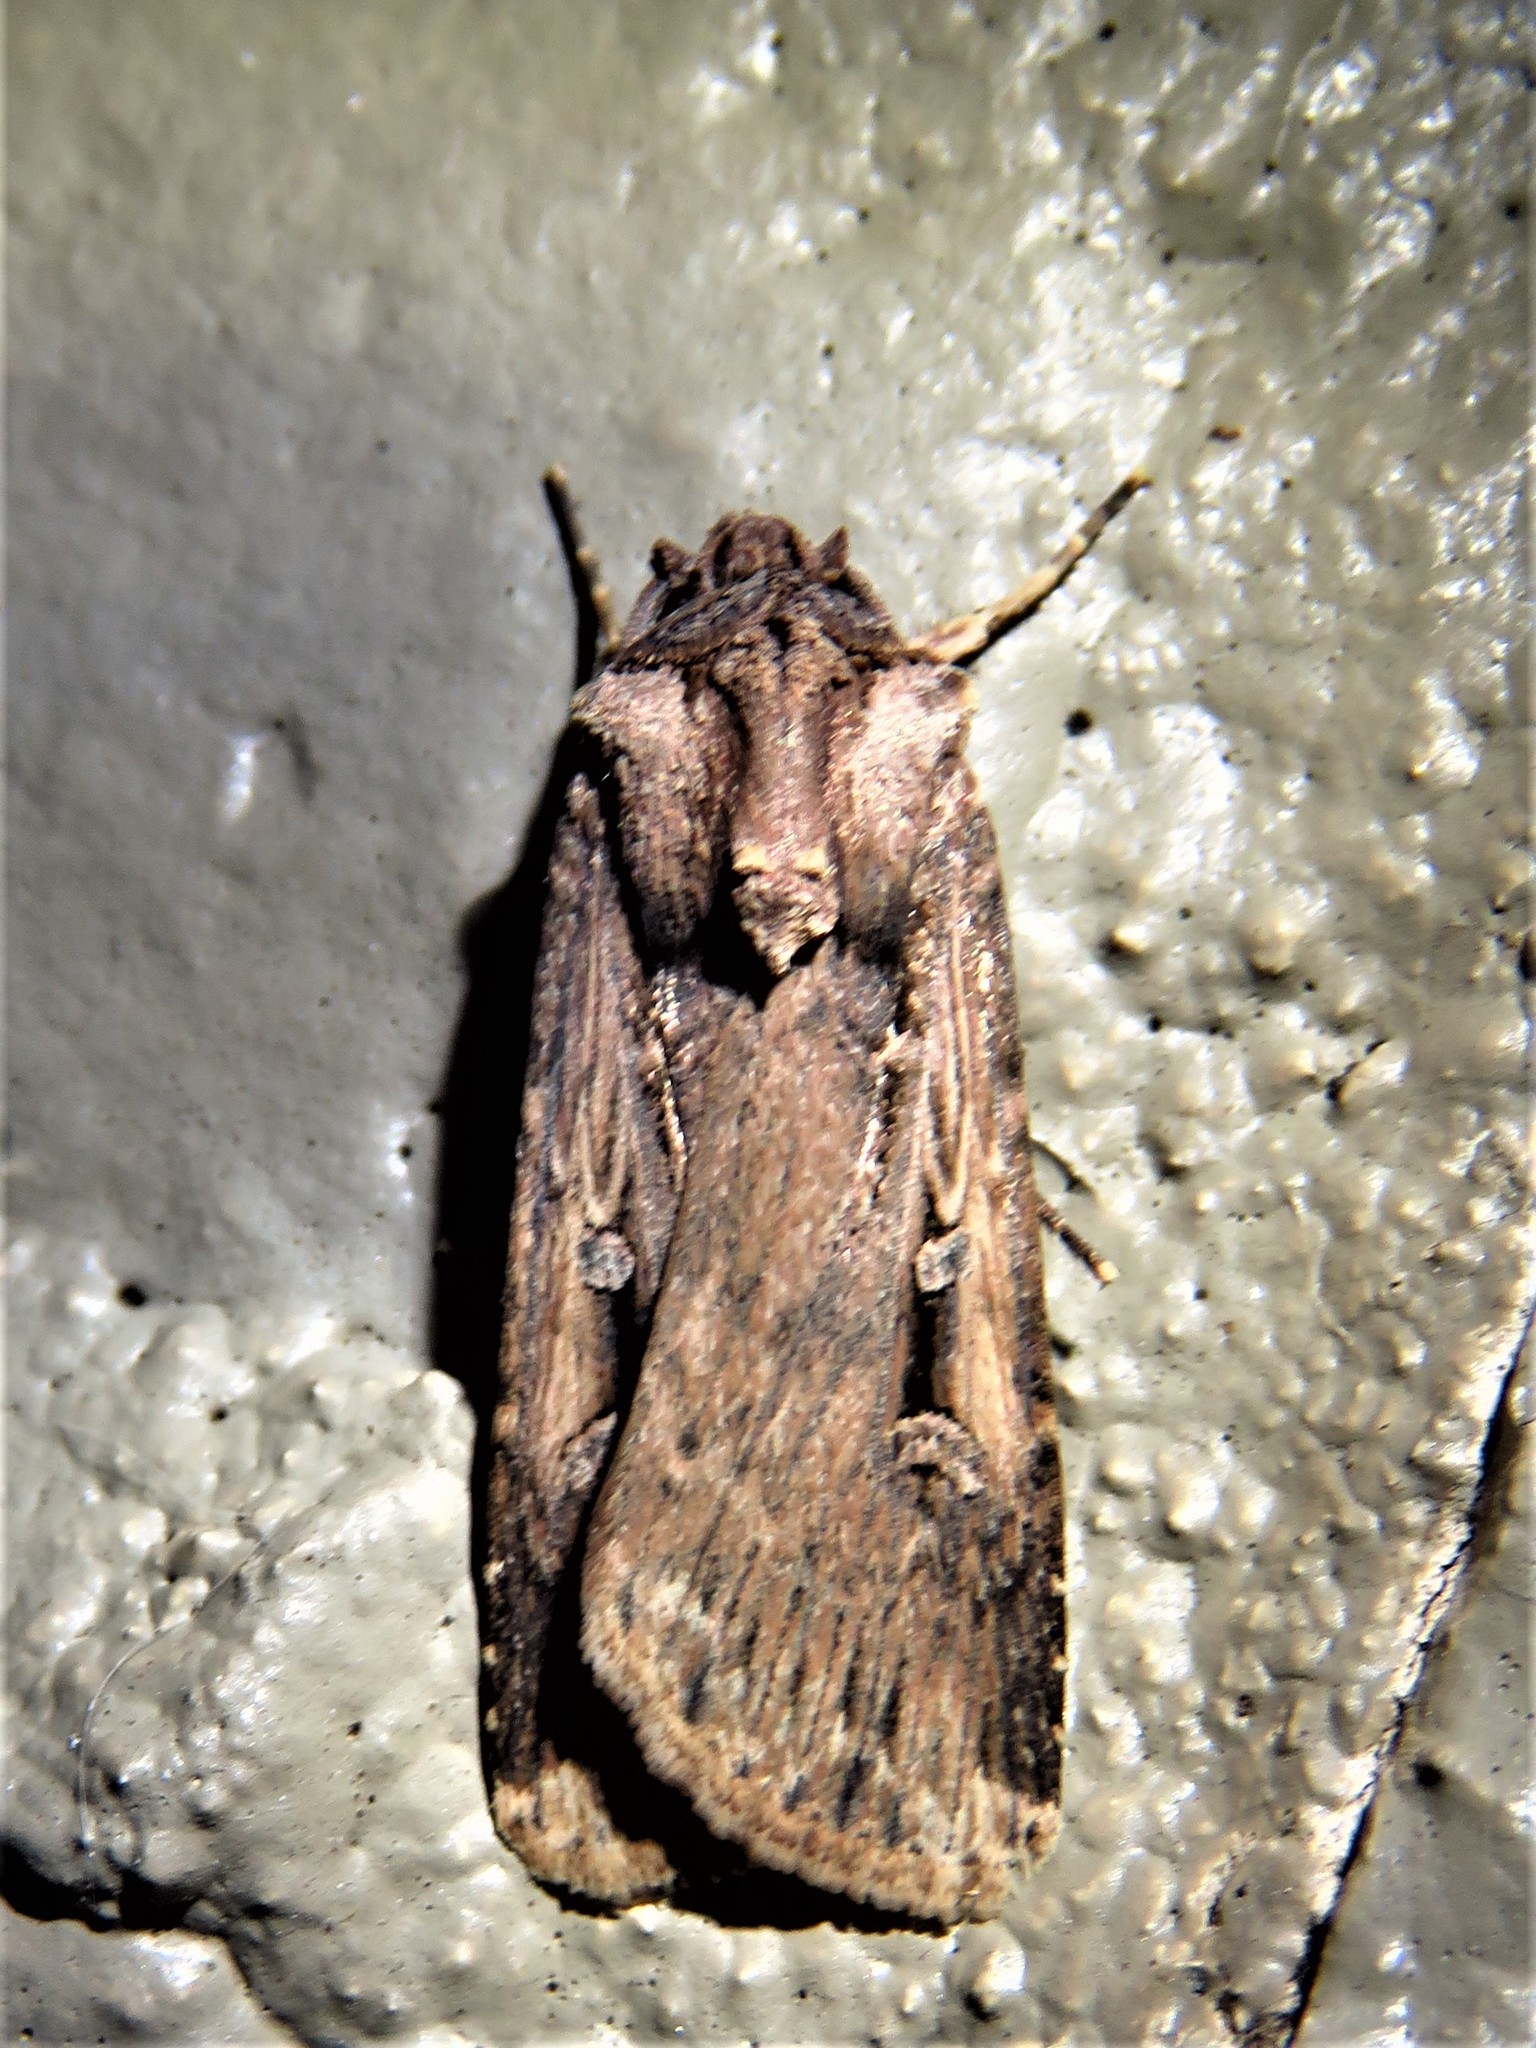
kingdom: Animalia
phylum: Arthropoda
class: Insecta
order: Lepidoptera
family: Noctuidae
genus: Feltia
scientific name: Feltia subterranea
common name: Granulate cutworm
